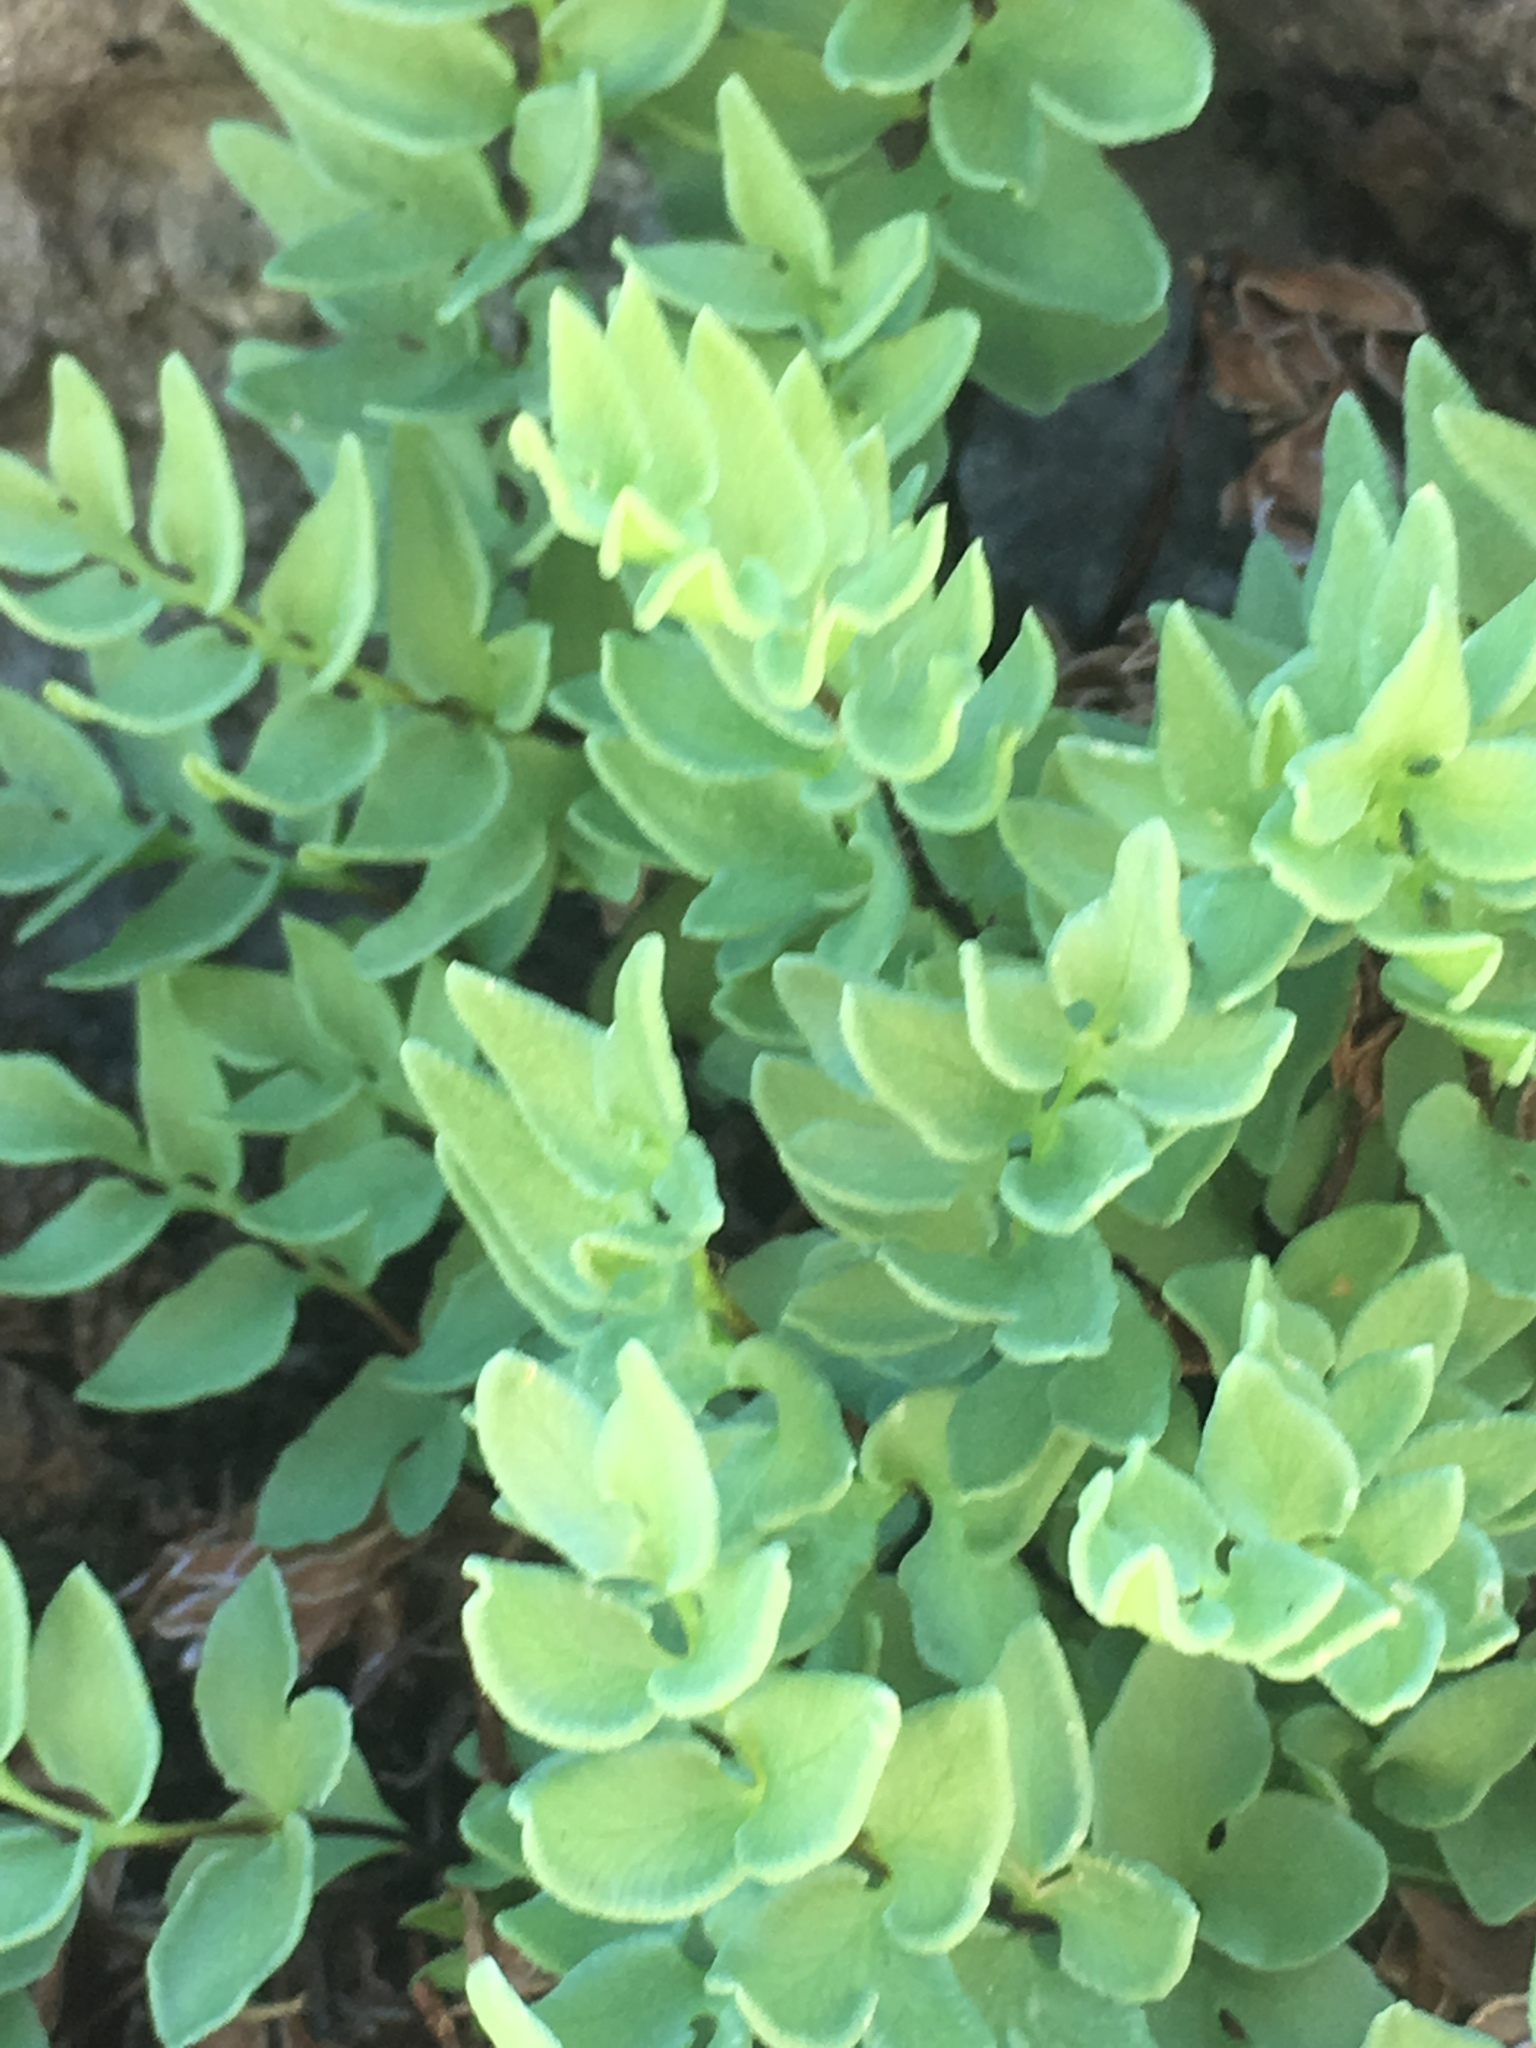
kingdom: Plantae
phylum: Tracheophyta
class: Polypodiopsida
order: Polypodiales
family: Pteridaceae
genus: Pellaea
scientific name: Pellaea breweri
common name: Brewer's cliffbrake
